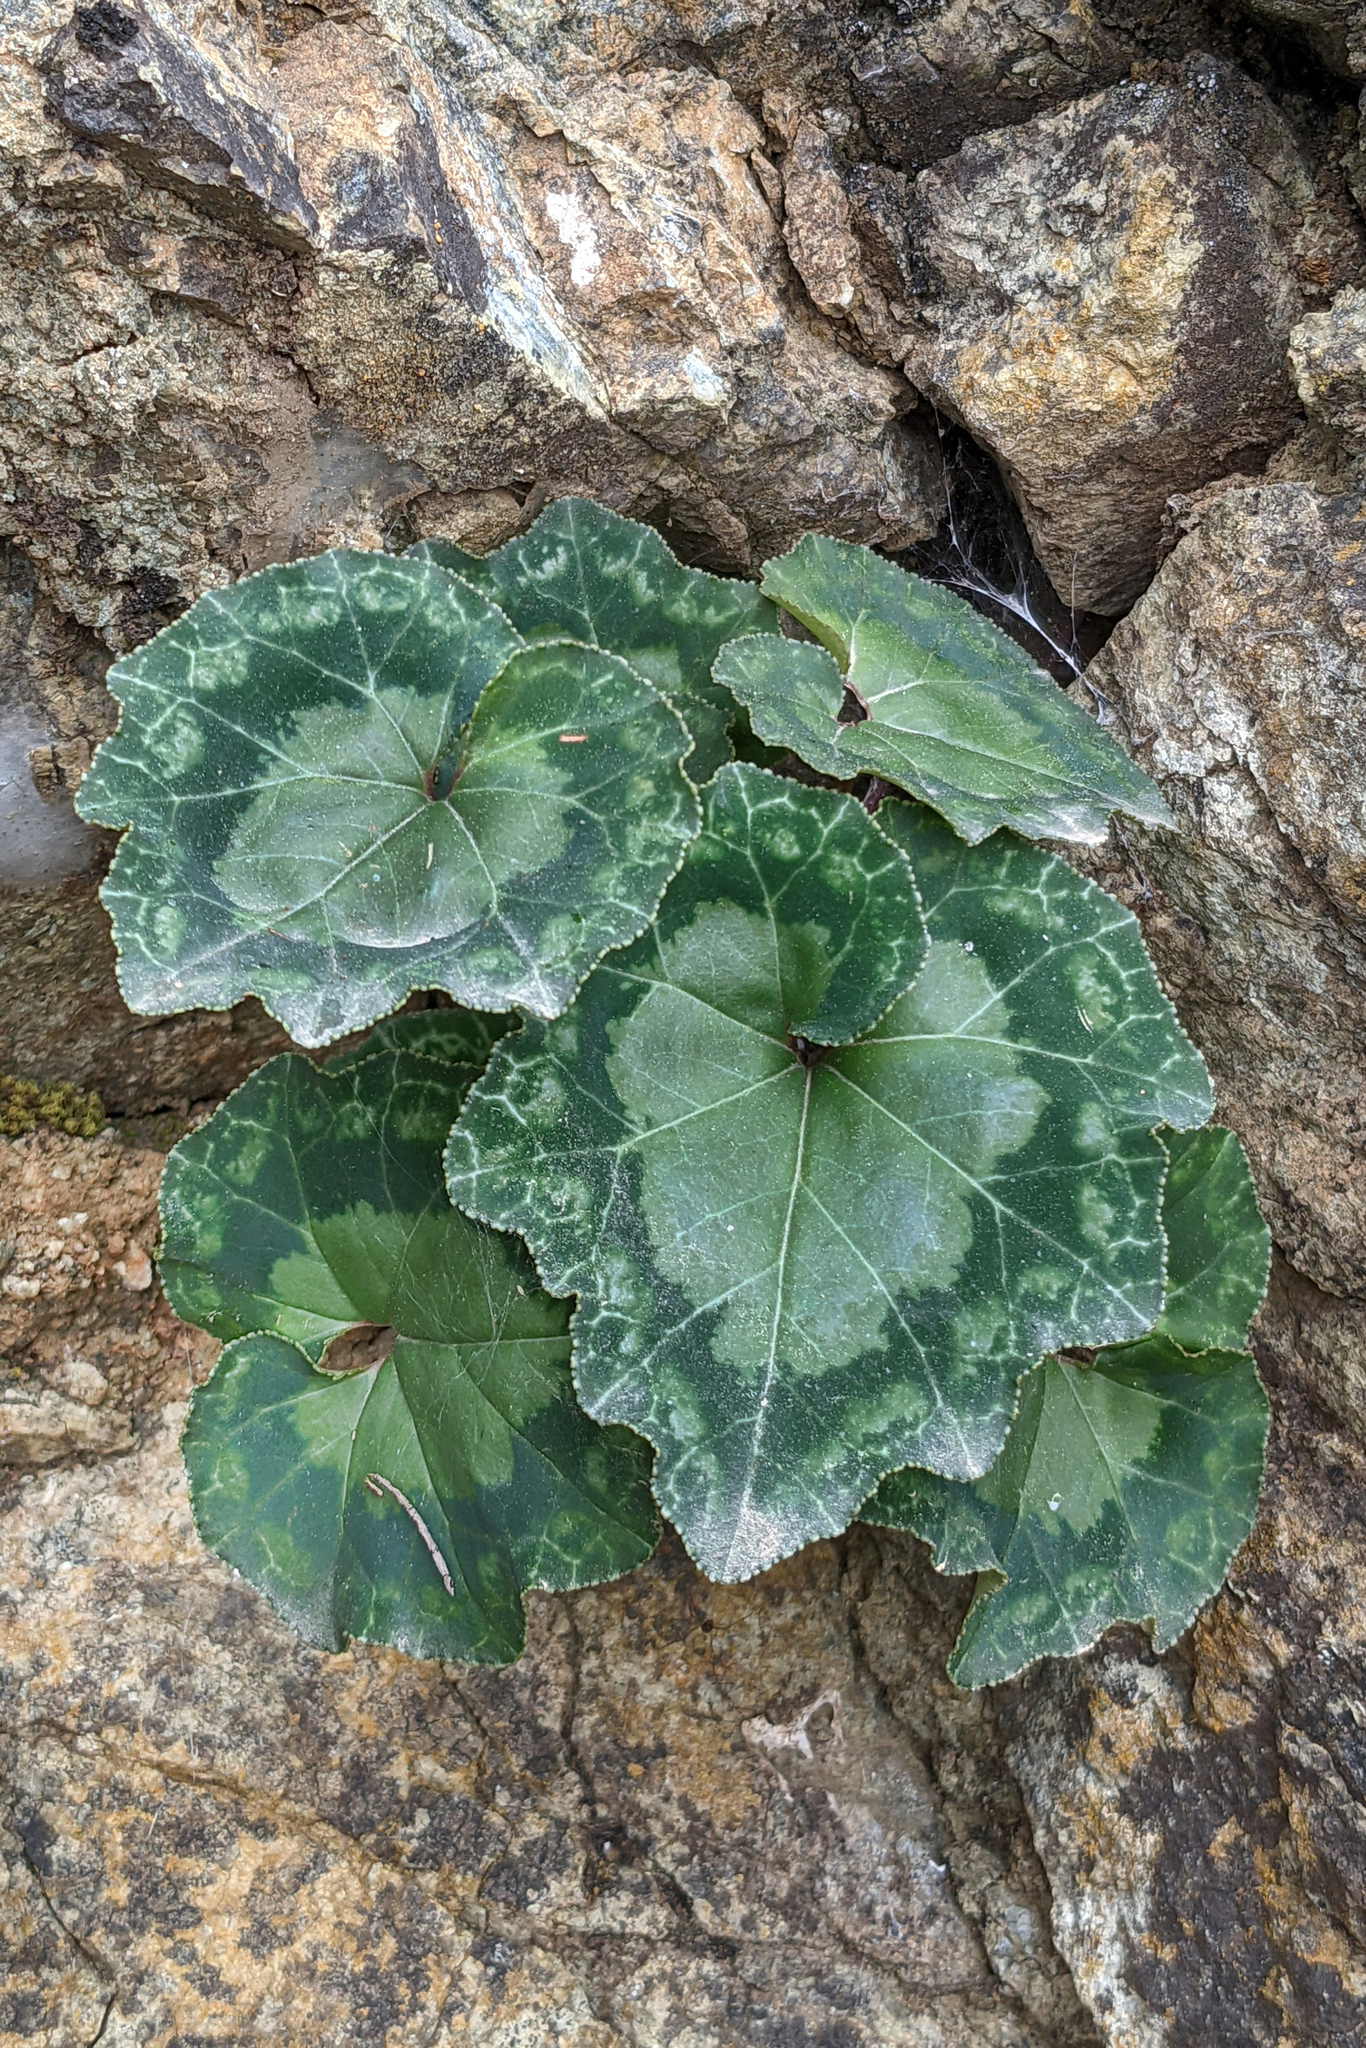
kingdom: Plantae
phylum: Tracheophyta
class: Magnoliopsida
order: Ericales
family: Primulaceae
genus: Cyclamen
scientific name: Cyclamen persicum
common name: Florist's cyclamen
